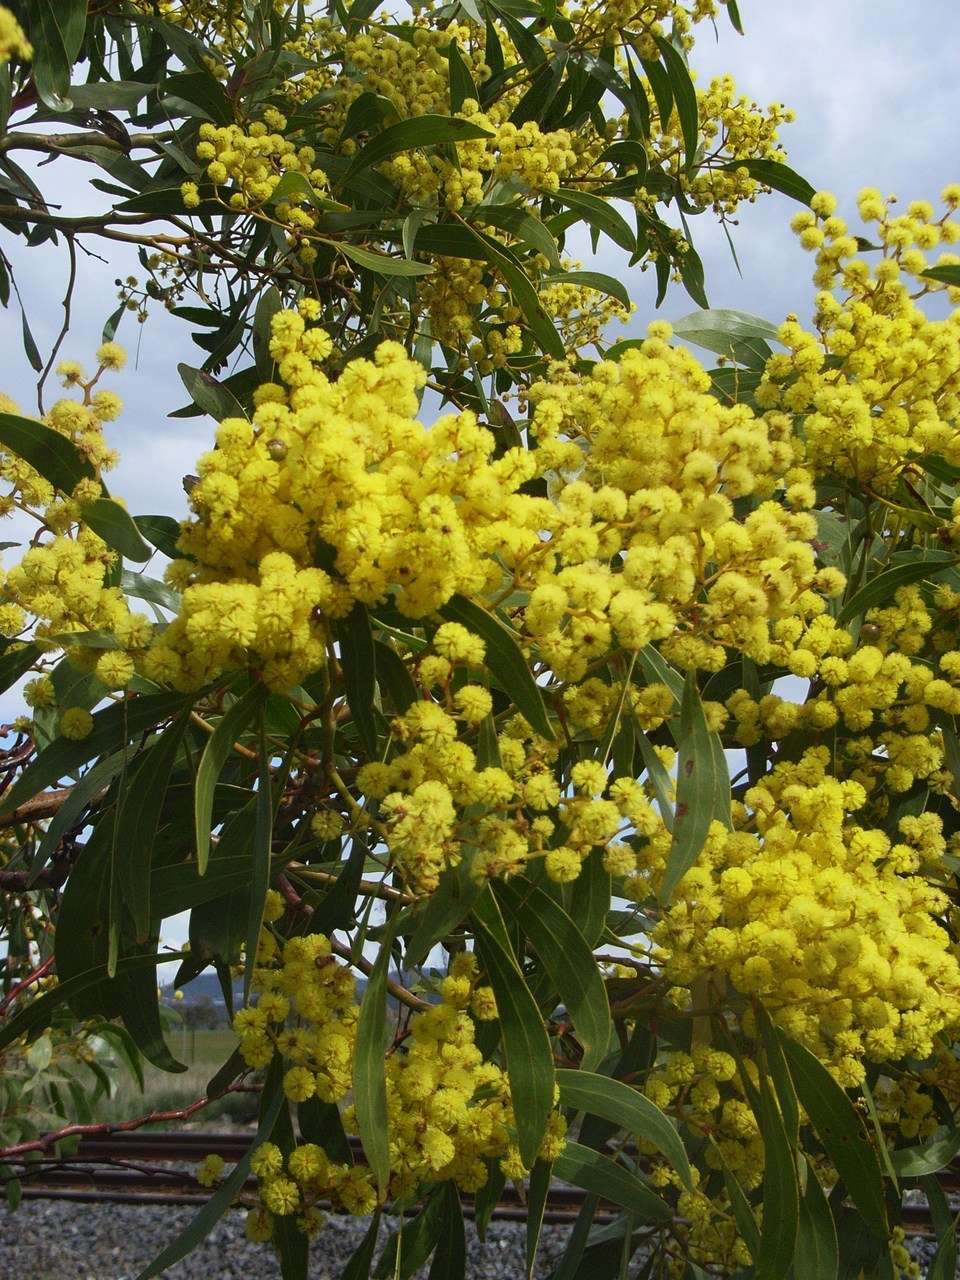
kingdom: Plantae
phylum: Tracheophyta
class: Magnoliopsida
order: Fabales
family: Fabaceae
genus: Acacia
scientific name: Acacia pycnantha
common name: Golden wattle
